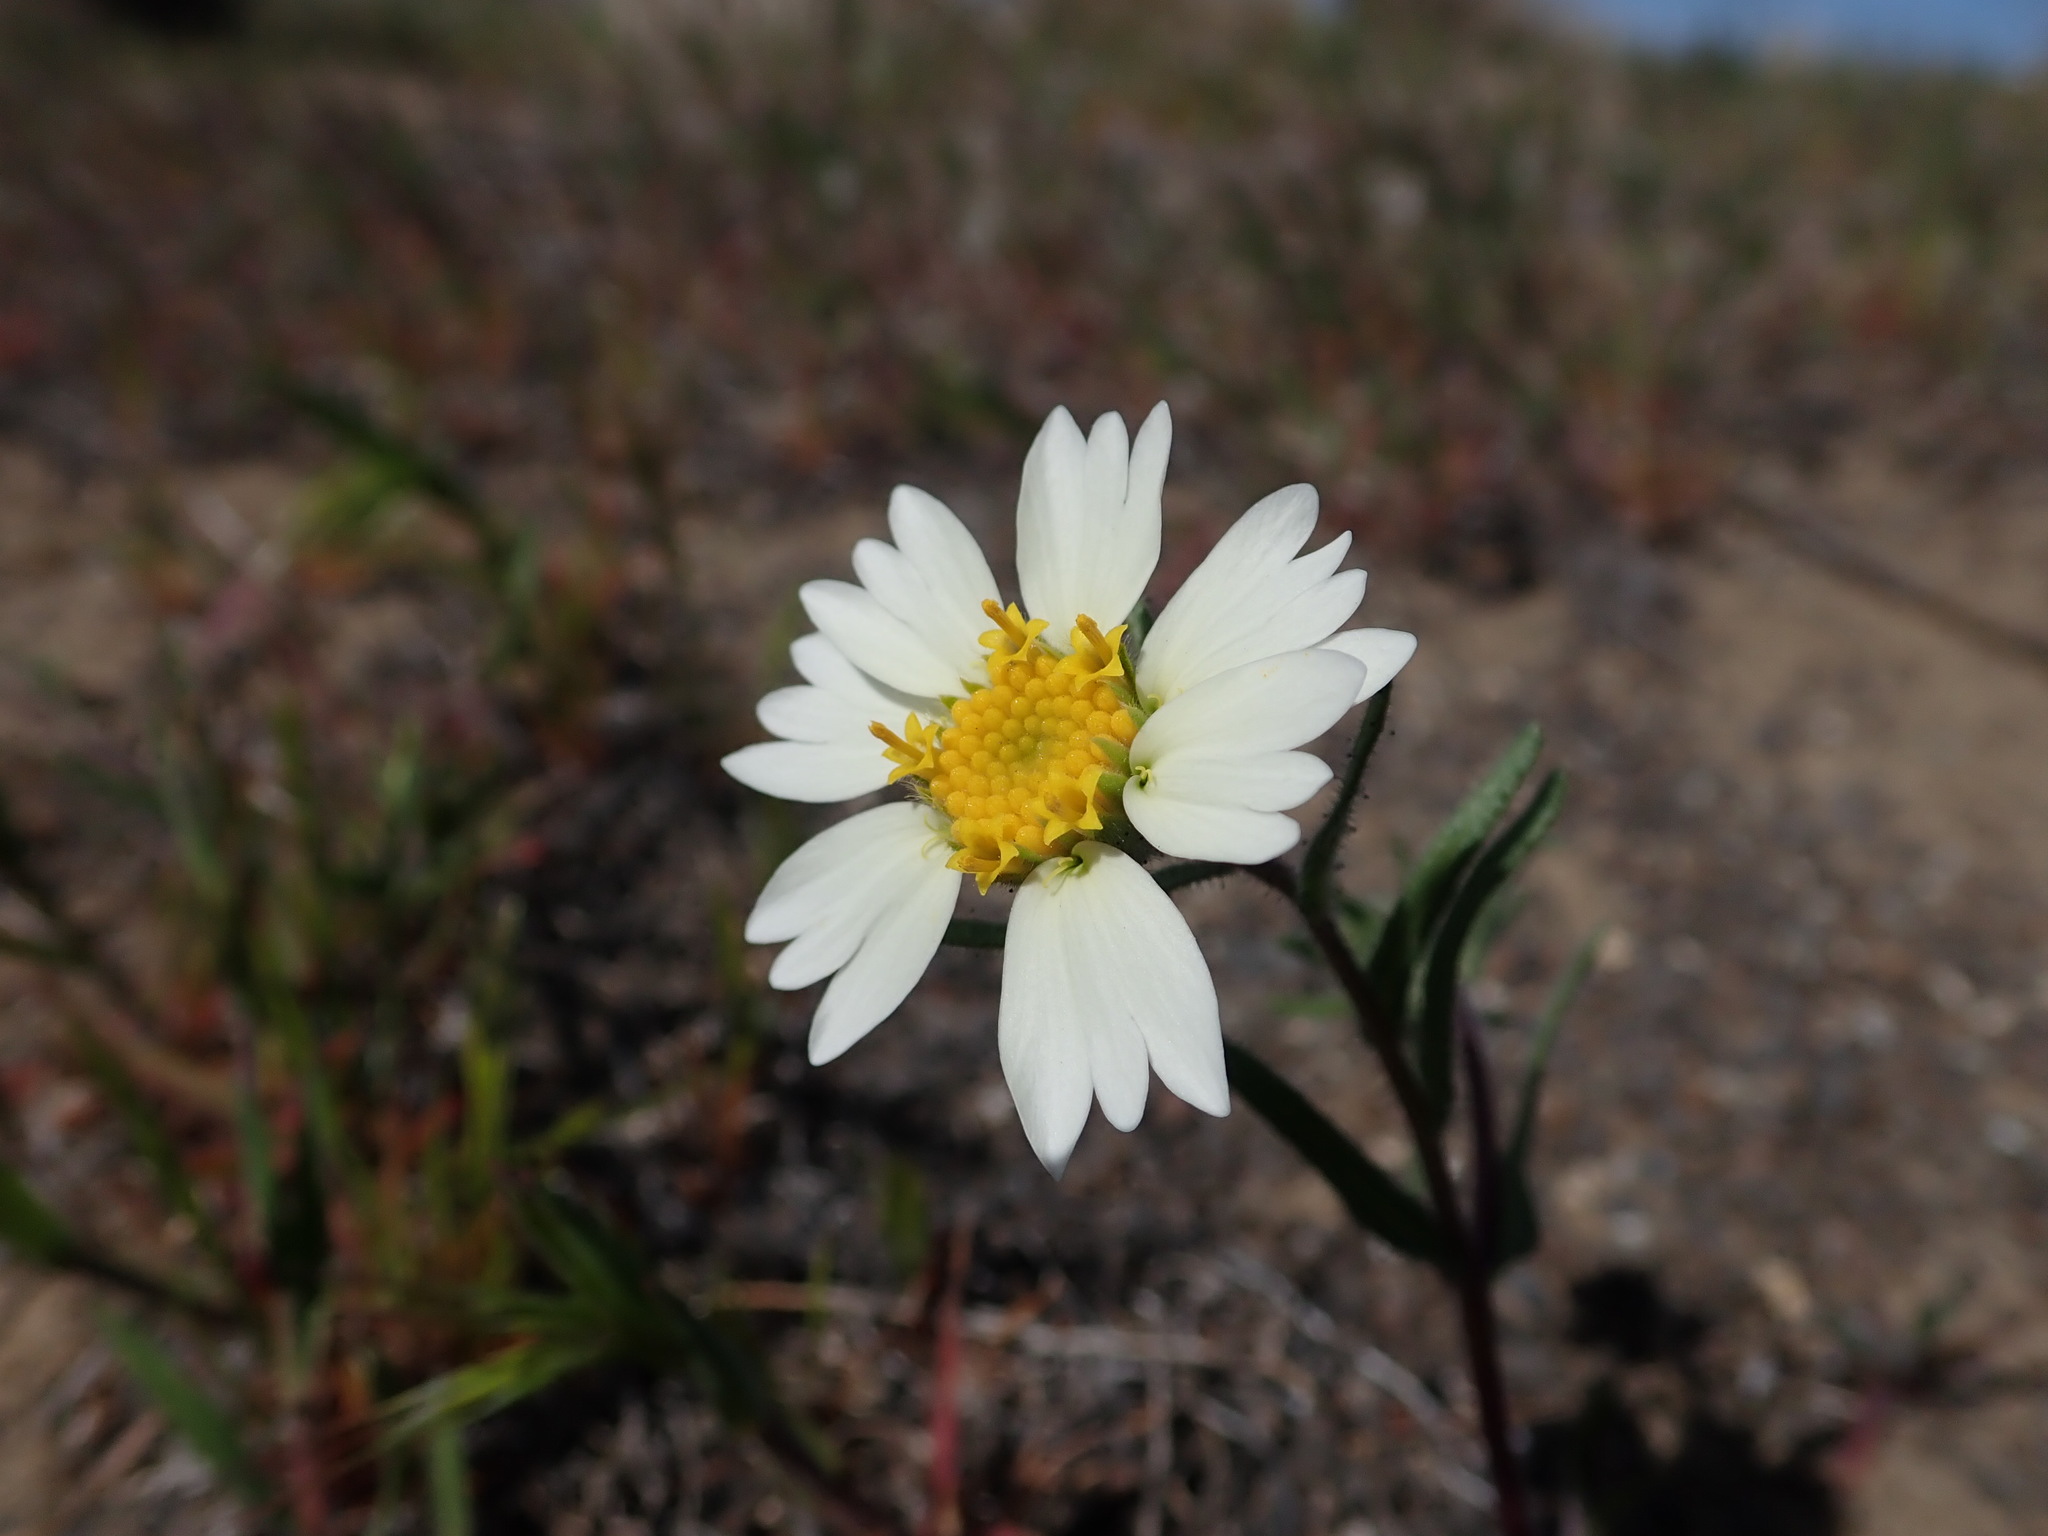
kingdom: Plantae
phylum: Tracheophyta
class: Magnoliopsida
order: Asterales
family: Asteraceae
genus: Layia
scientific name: Layia glandulosa
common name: White layia
